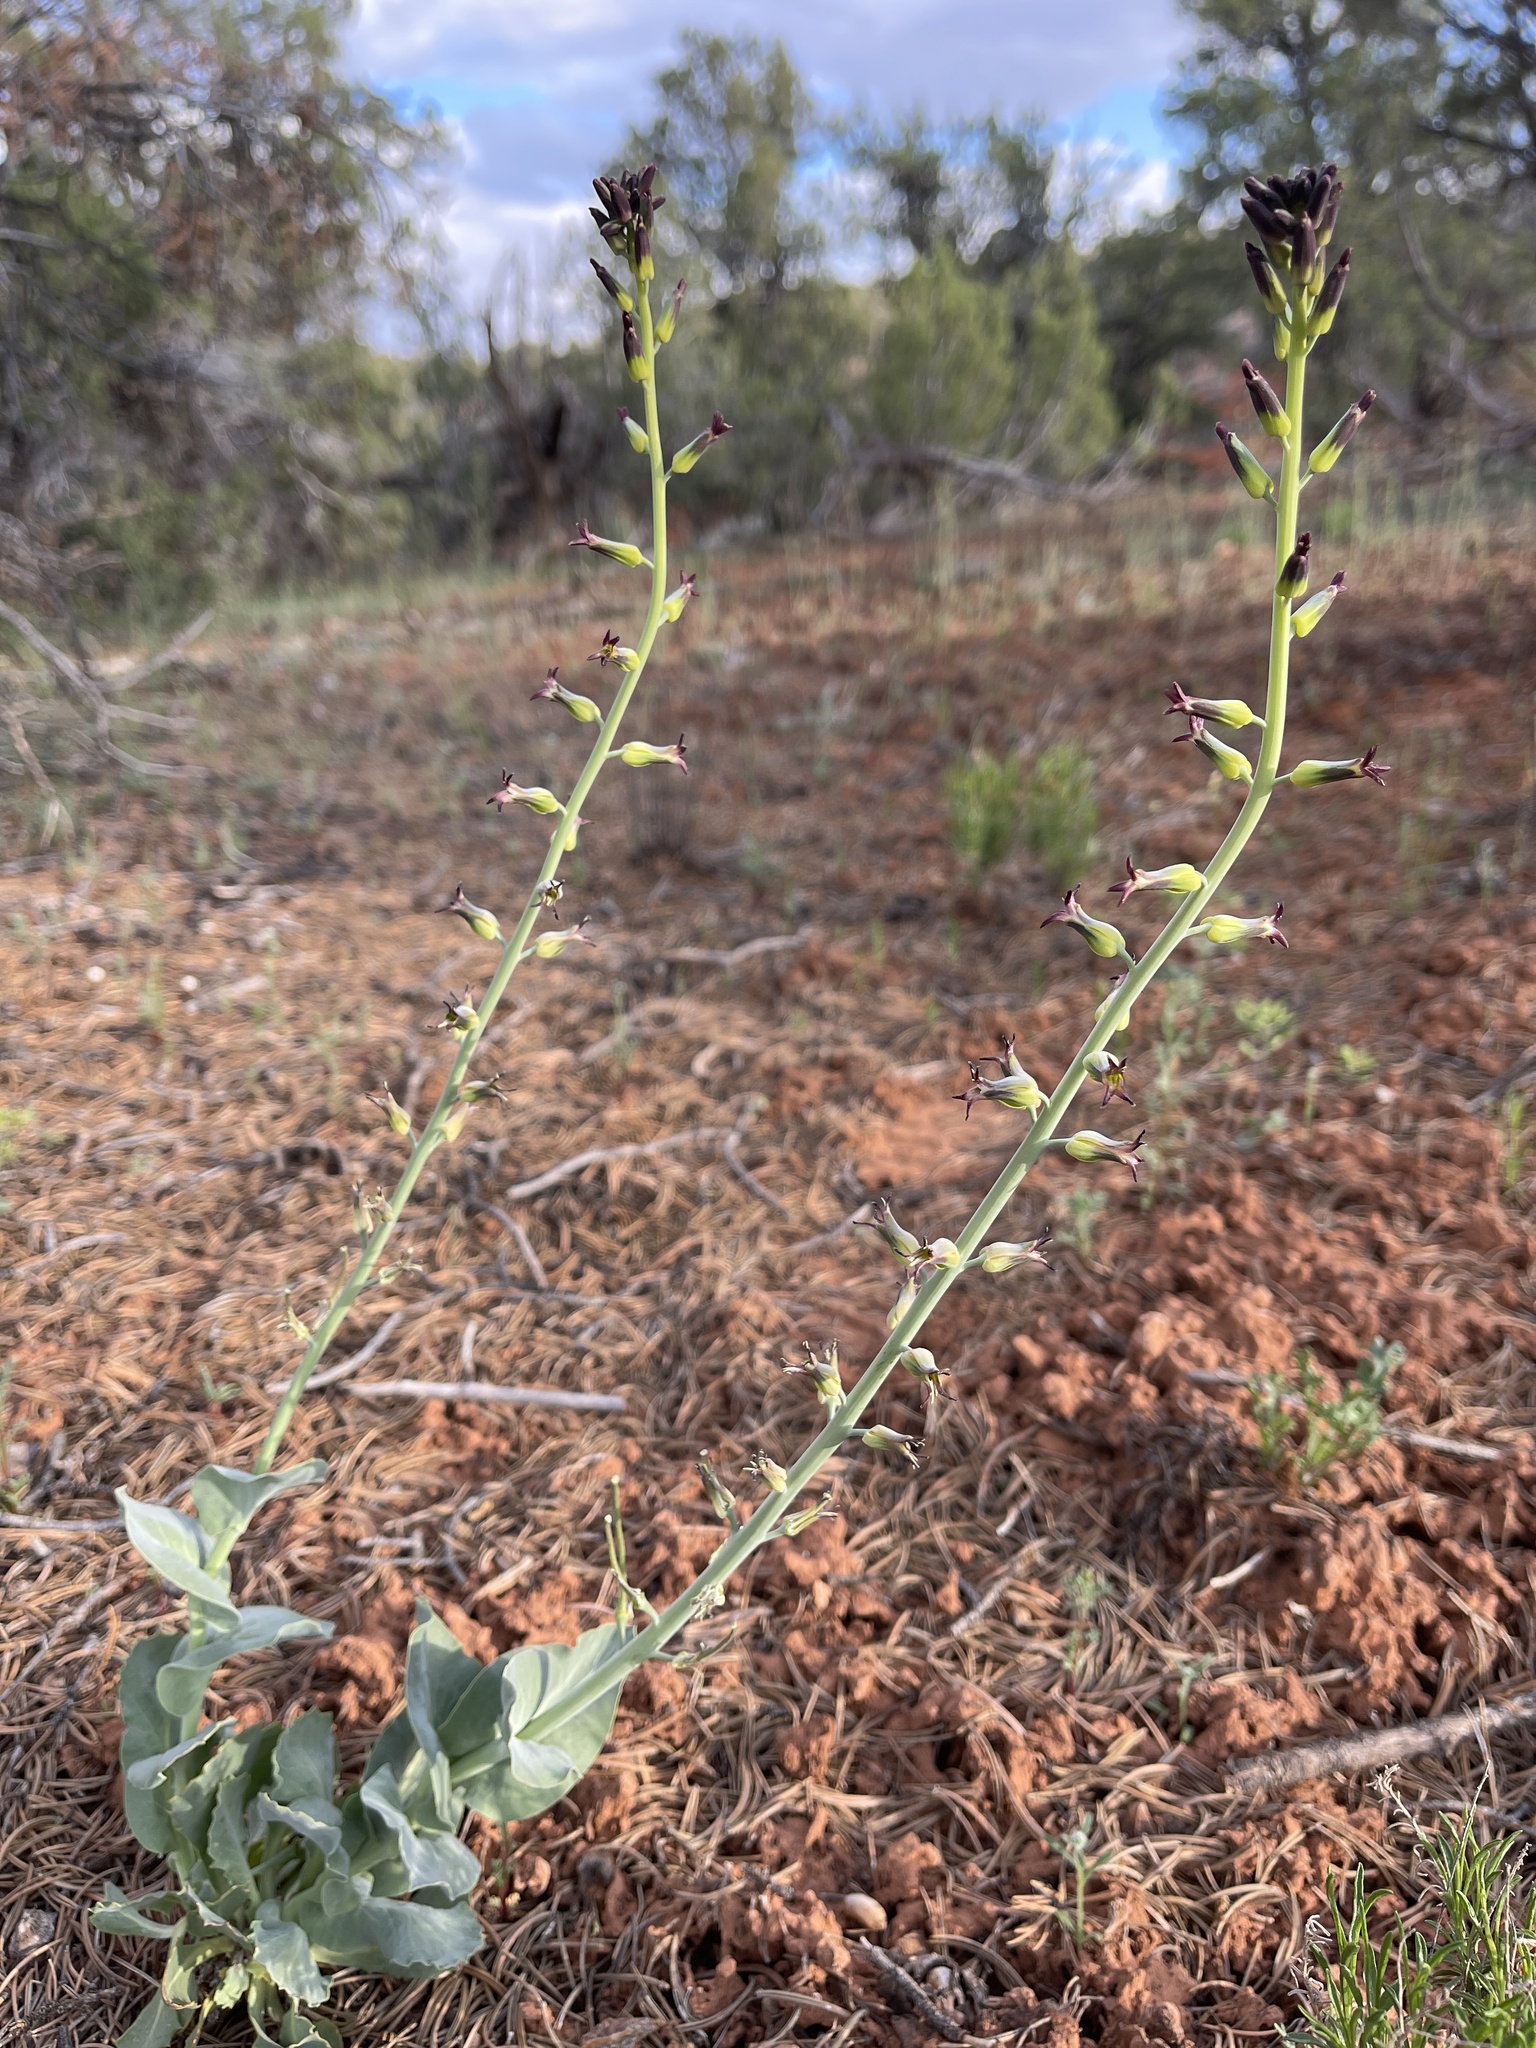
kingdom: Plantae
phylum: Tracheophyta
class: Magnoliopsida
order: Brassicales
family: Brassicaceae
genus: Streptanthus
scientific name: Streptanthus cordatus
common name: Heart-leaf jewel-flower
